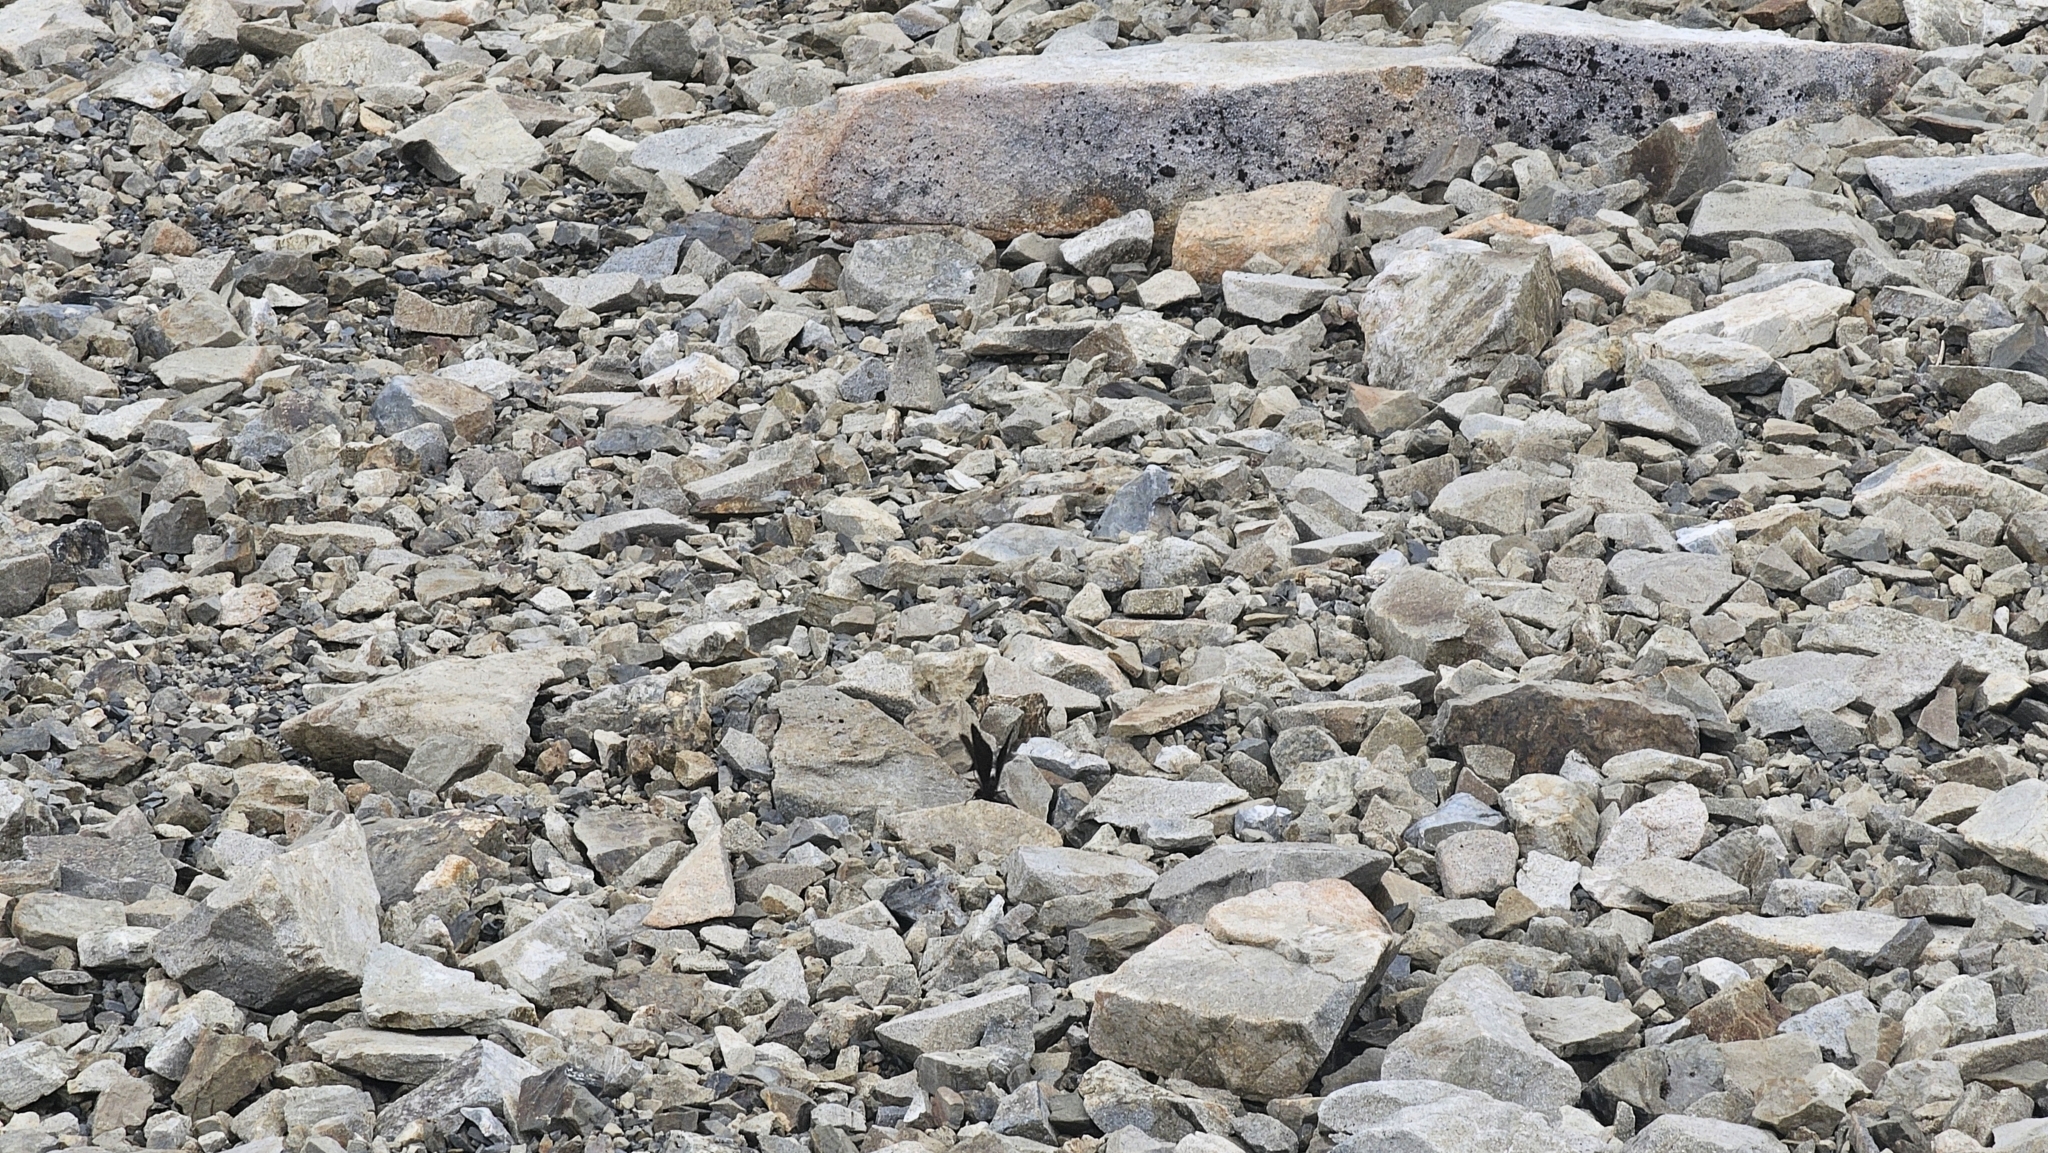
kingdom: Animalia
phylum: Arthropoda
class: Insecta
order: Lepidoptera
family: Nymphalidae
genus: Erebia
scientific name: Erebia Percnodaimon merula
